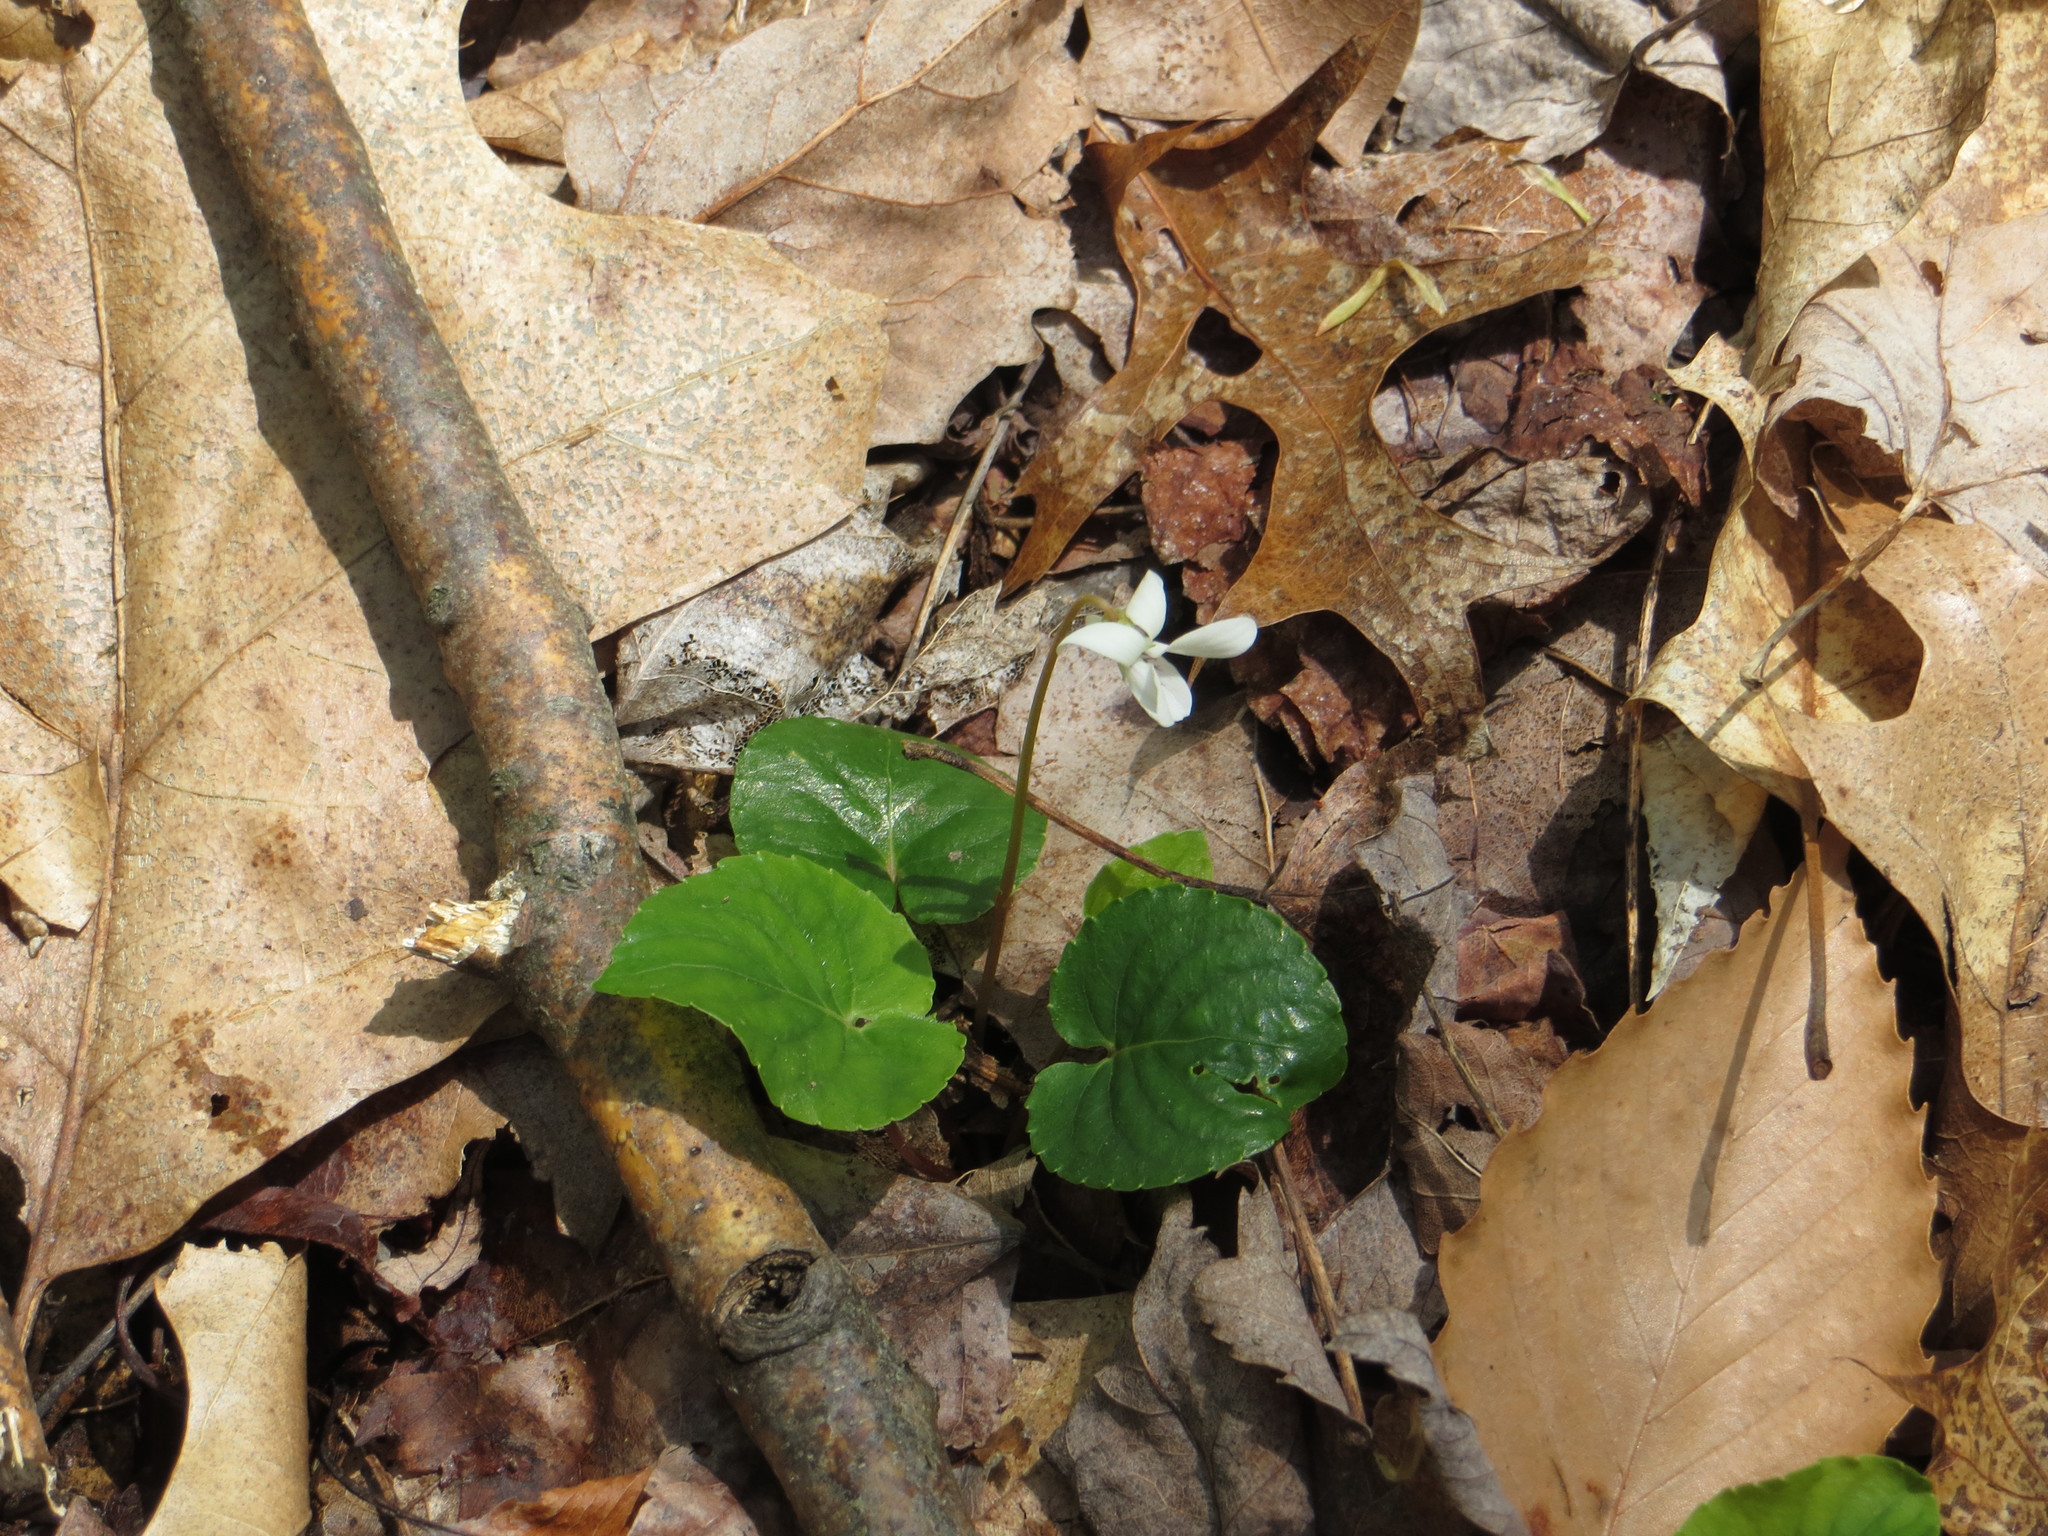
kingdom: Plantae
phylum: Tracheophyta
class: Magnoliopsida
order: Malpighiales
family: Violaceae
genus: Viola
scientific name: Viola blanda
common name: Sweet white violet
